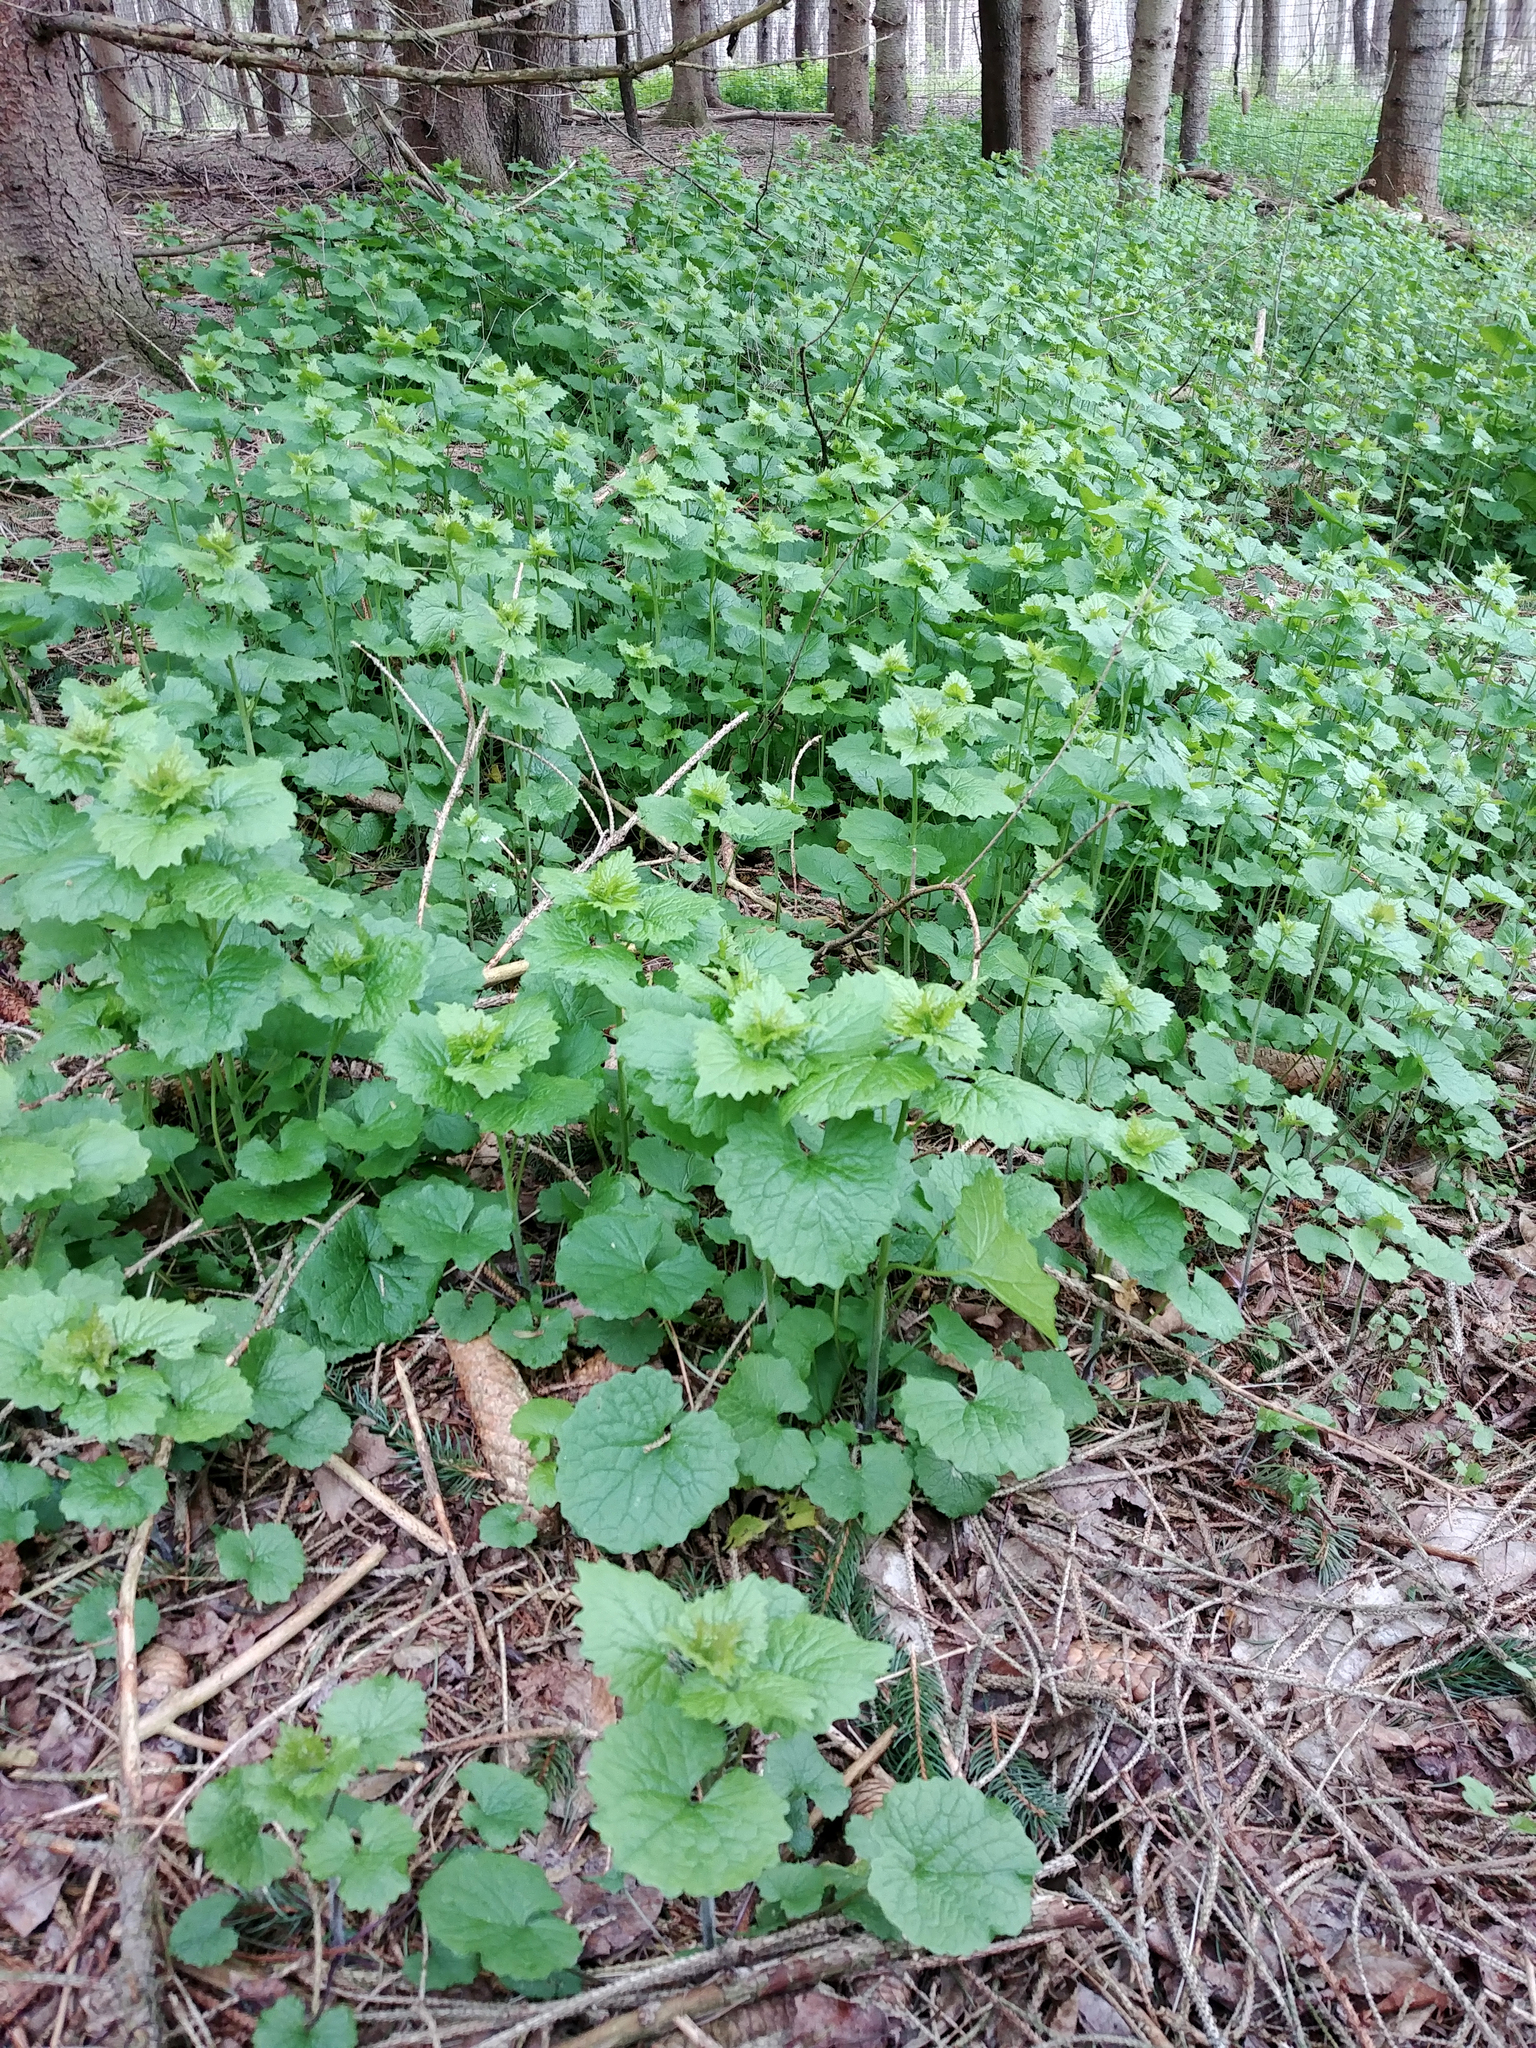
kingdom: Plantae
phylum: Tracheophyta
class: Magnoliopsida
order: Brassicales
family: Brassicaceae
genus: Alliaria
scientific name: Alliaria petiolata
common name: Garlic mustard
